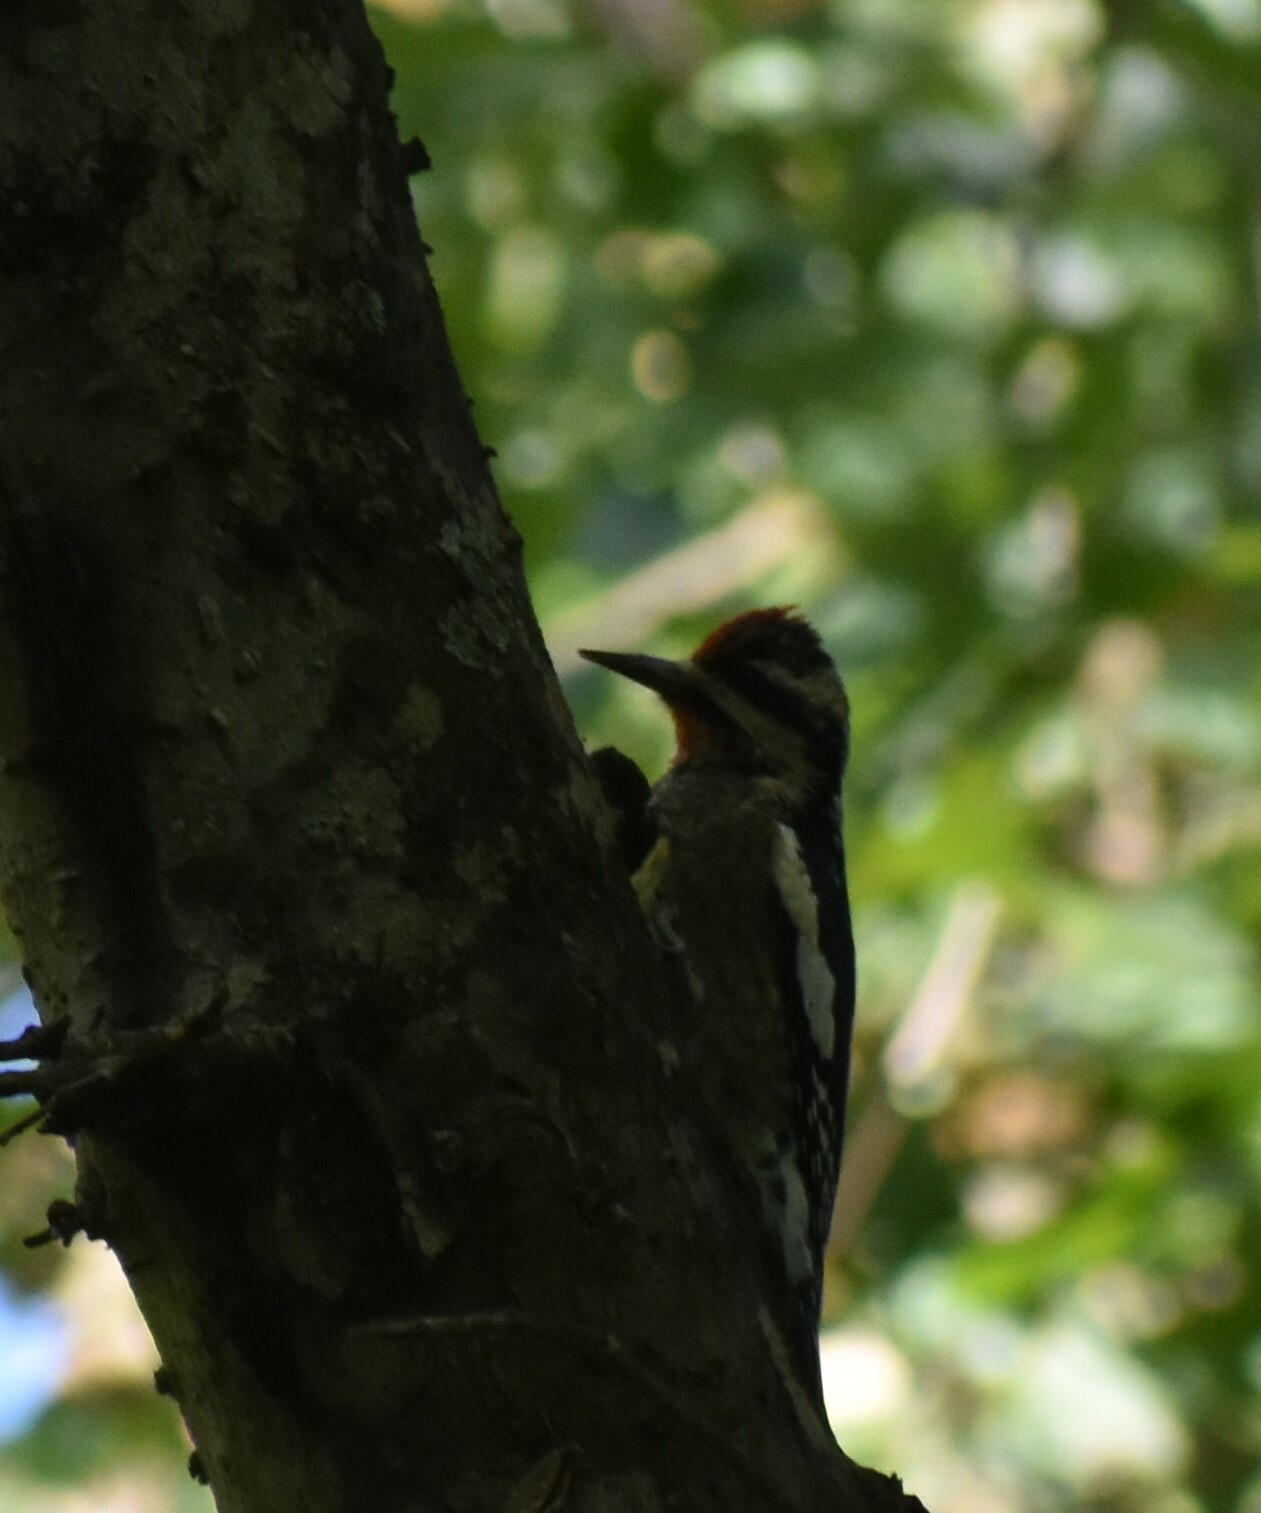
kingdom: Animalia
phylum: Chordata
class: Aves
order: Piciformes
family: Picidae
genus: Sphyrapicus
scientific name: Sphyrapicus varius
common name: Yellow-bellied sapsucker
